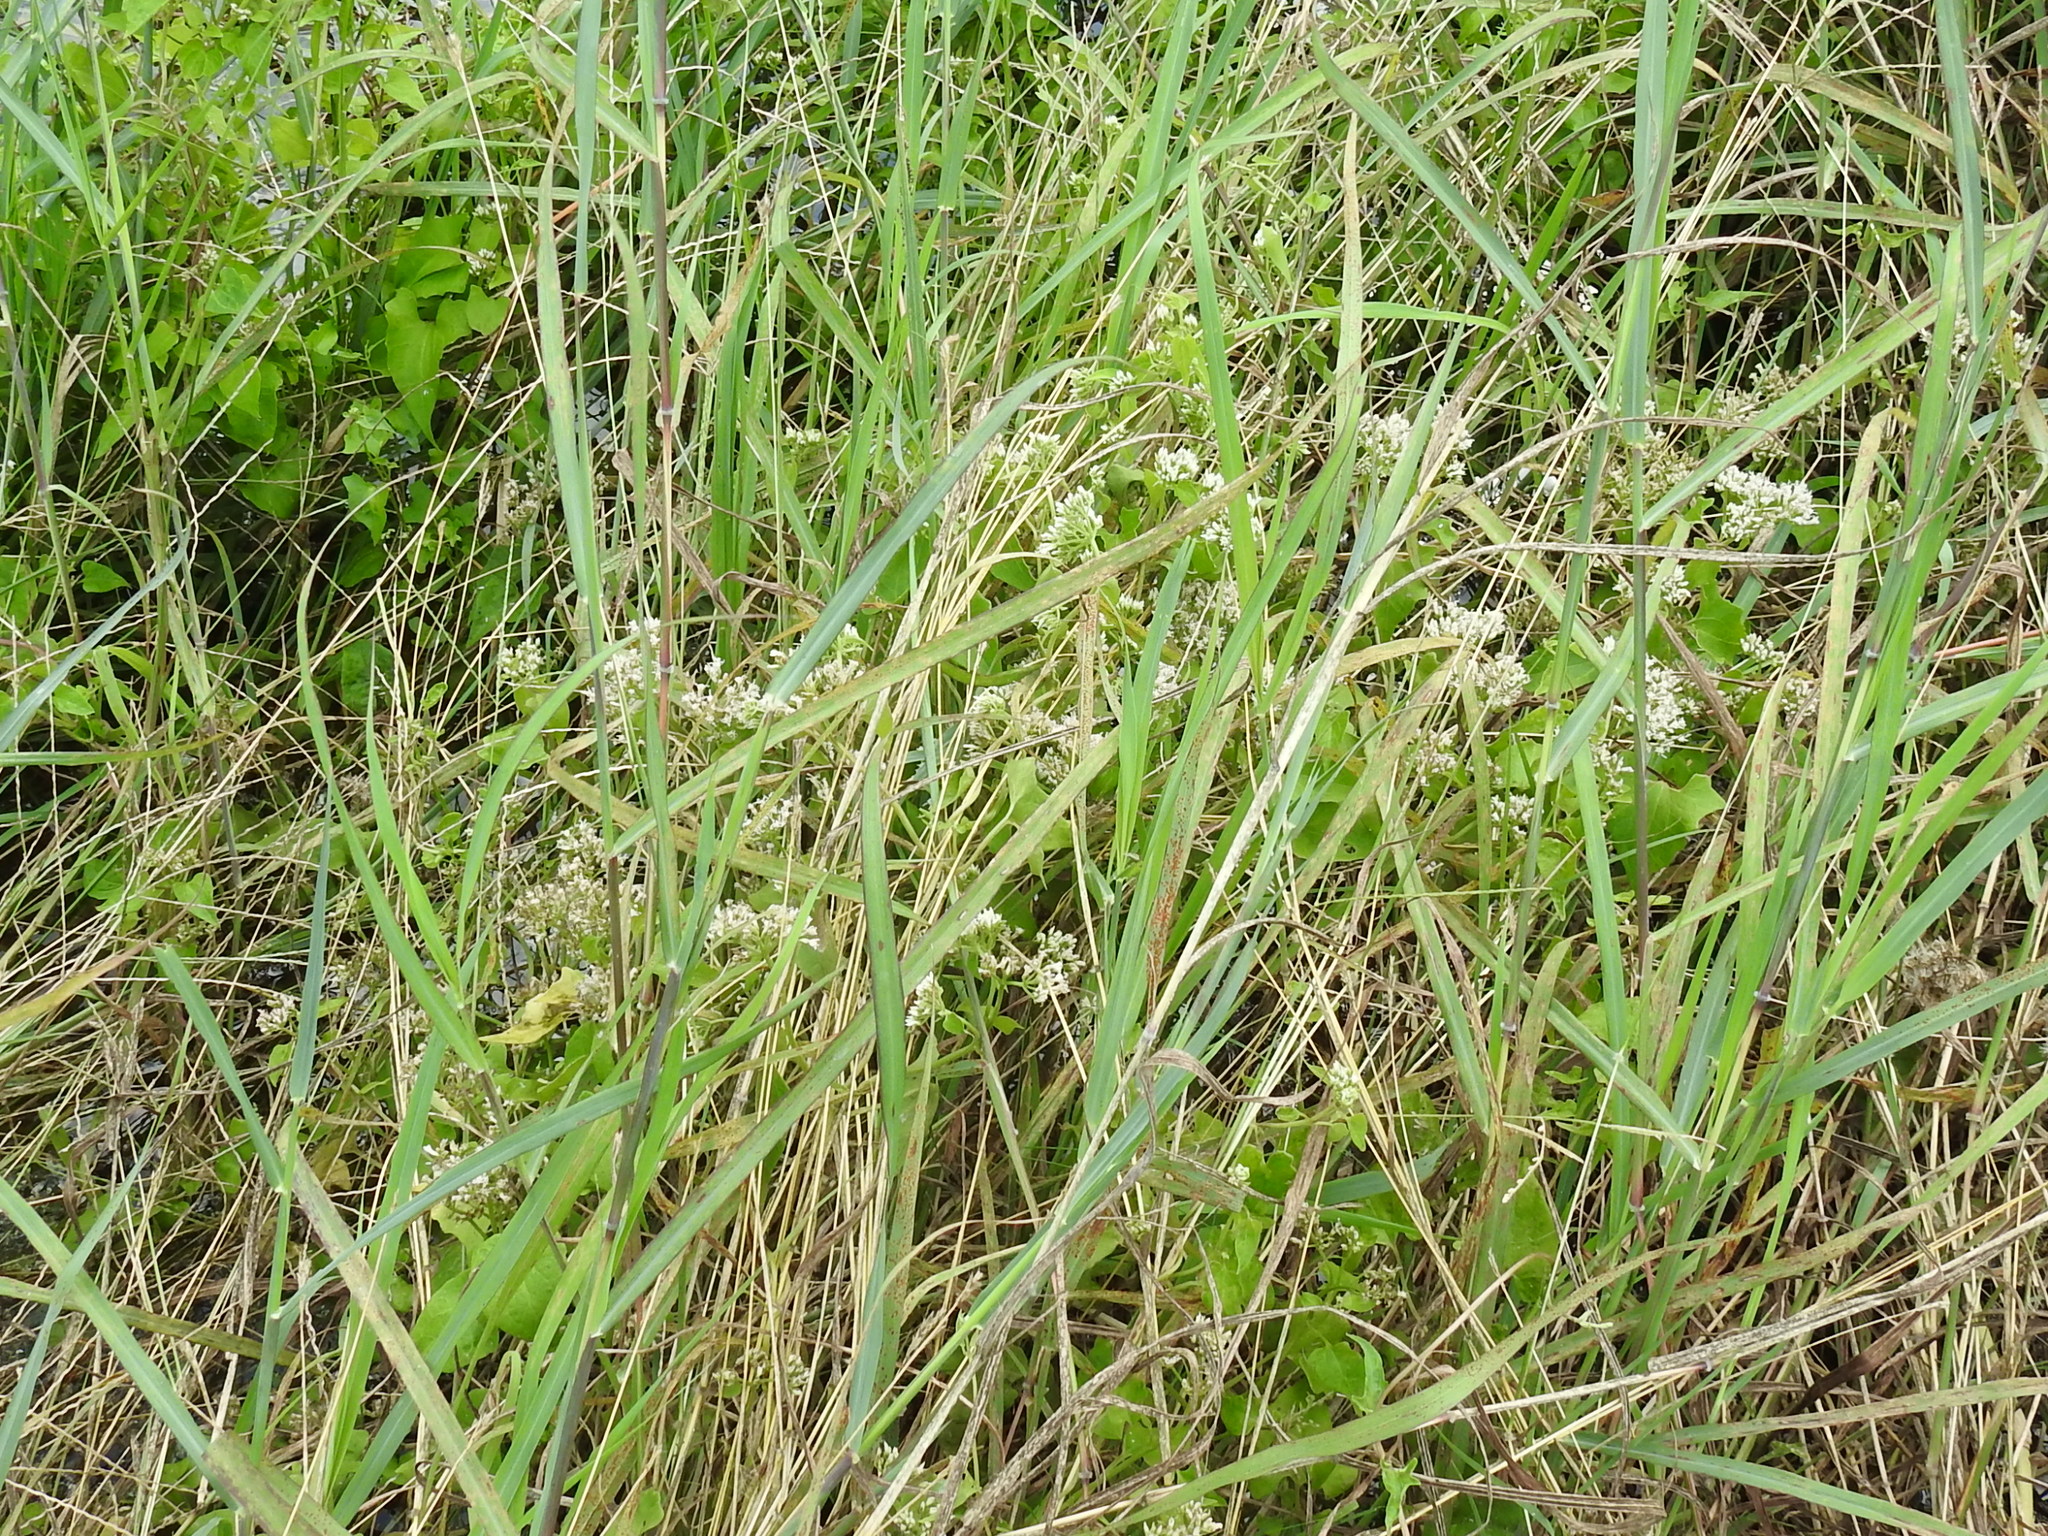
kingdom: Plantae
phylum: Tracheophyta
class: Magnoliopsida
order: Asterales
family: Asteraceae
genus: Mikania
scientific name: Mikania scandens
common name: Climbing hempvine
